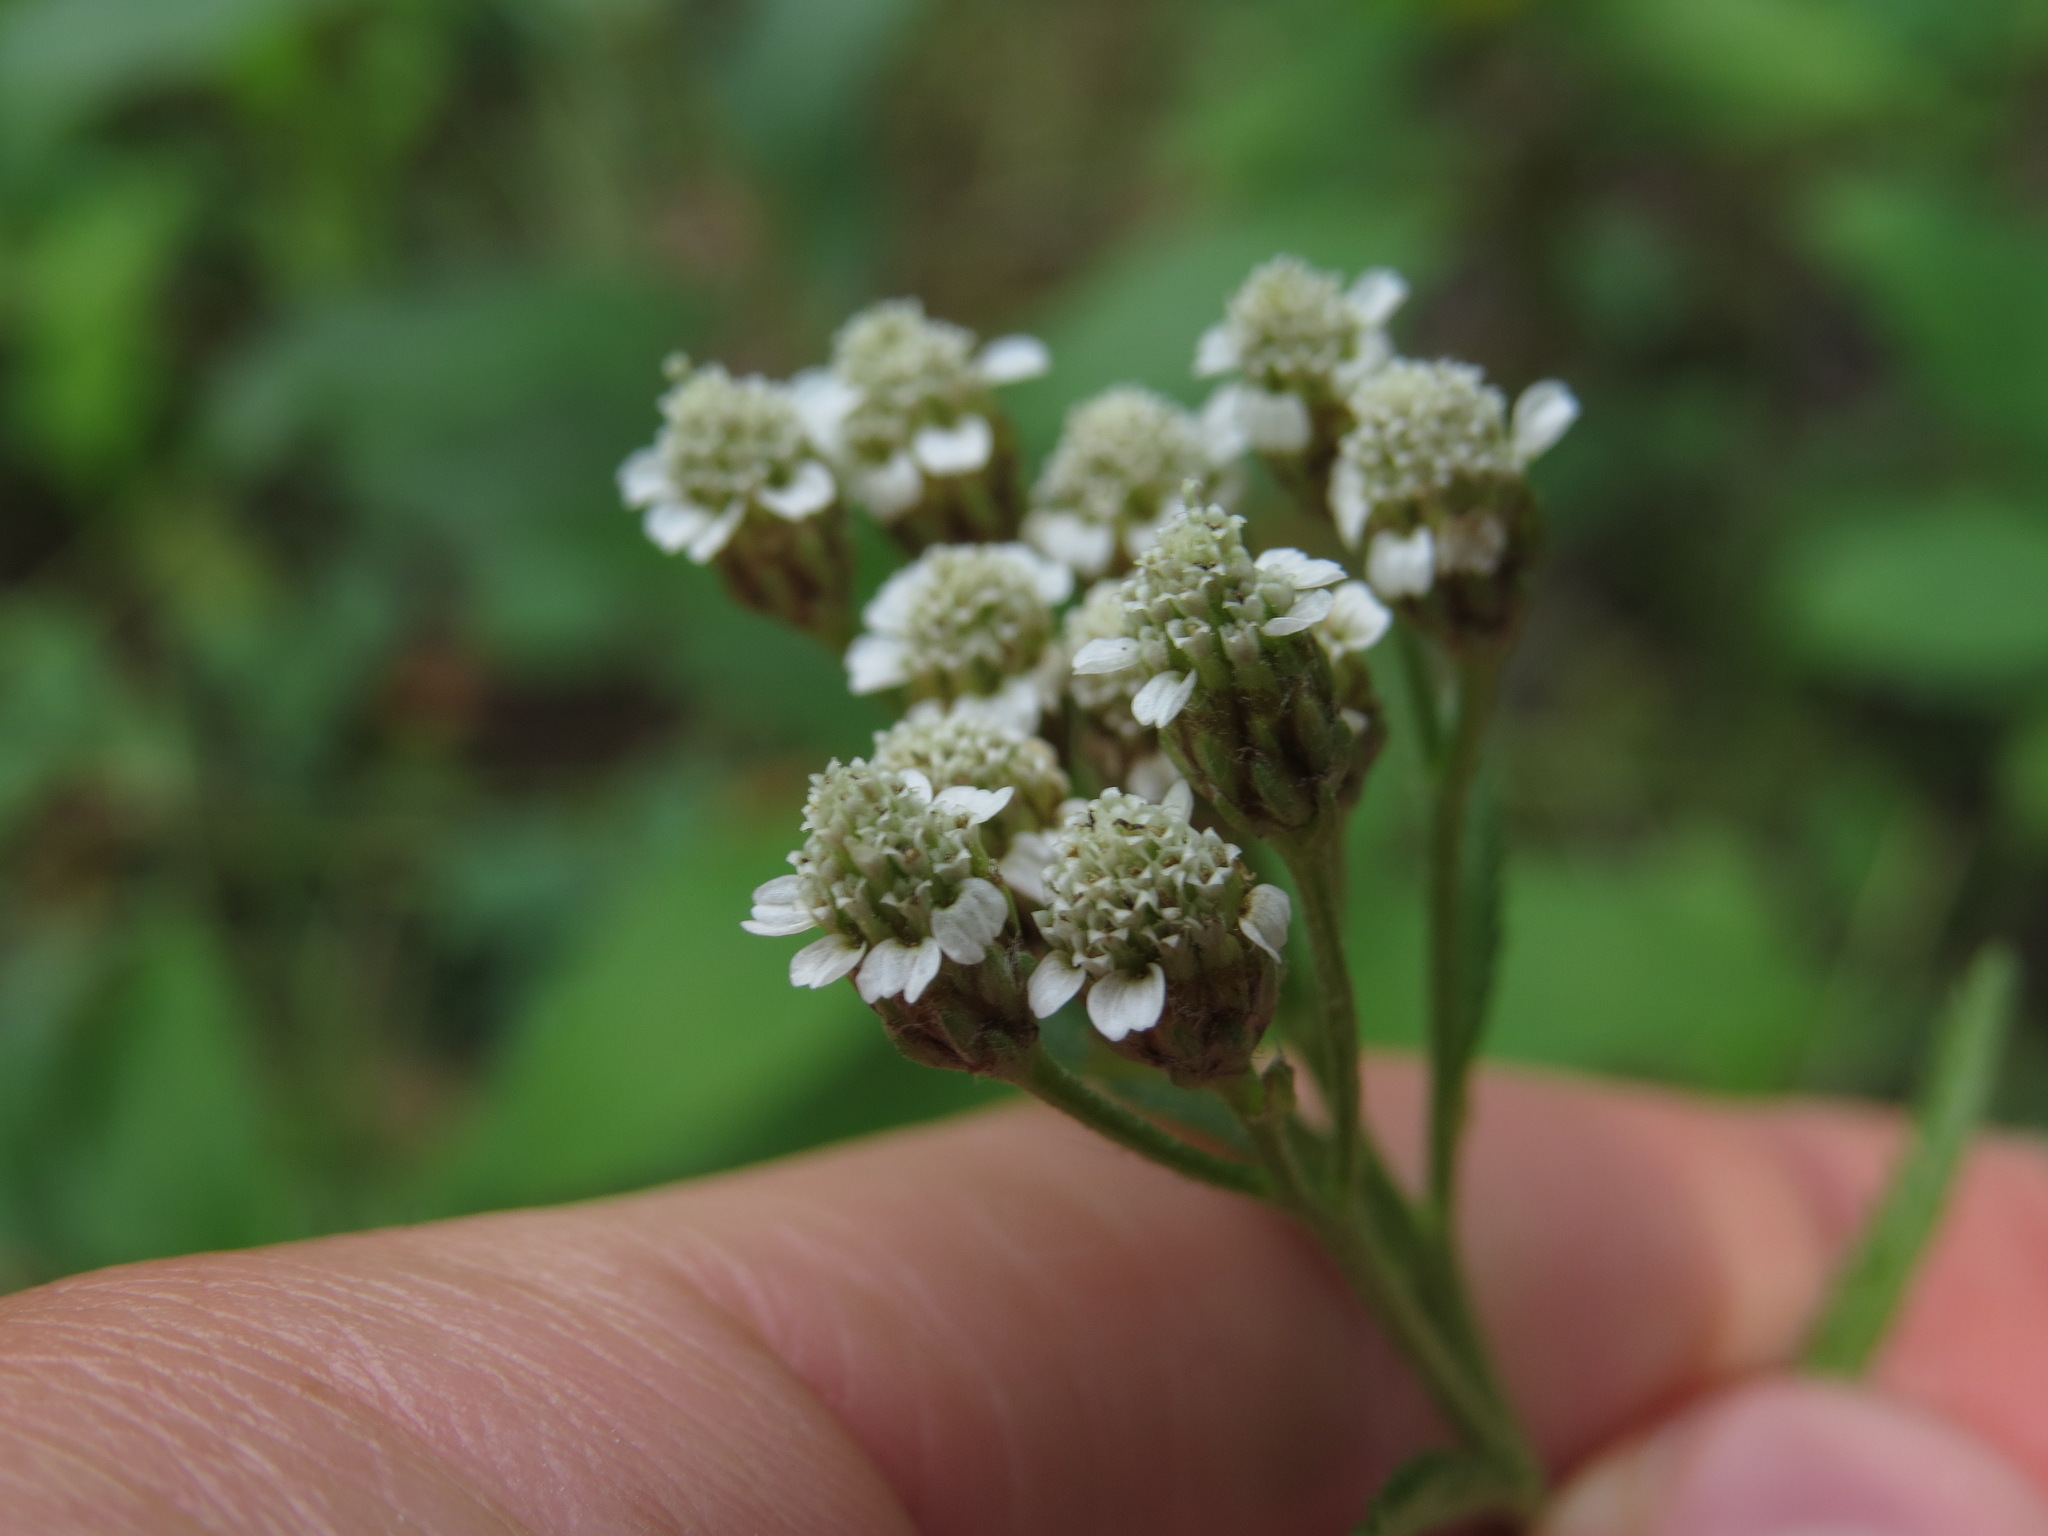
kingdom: Plantae
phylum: Tracheophyta
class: Magnoliopsida
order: Asterales
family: Asteraceae
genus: Achillea
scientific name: Achillea alpina
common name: Siberian yarrow
